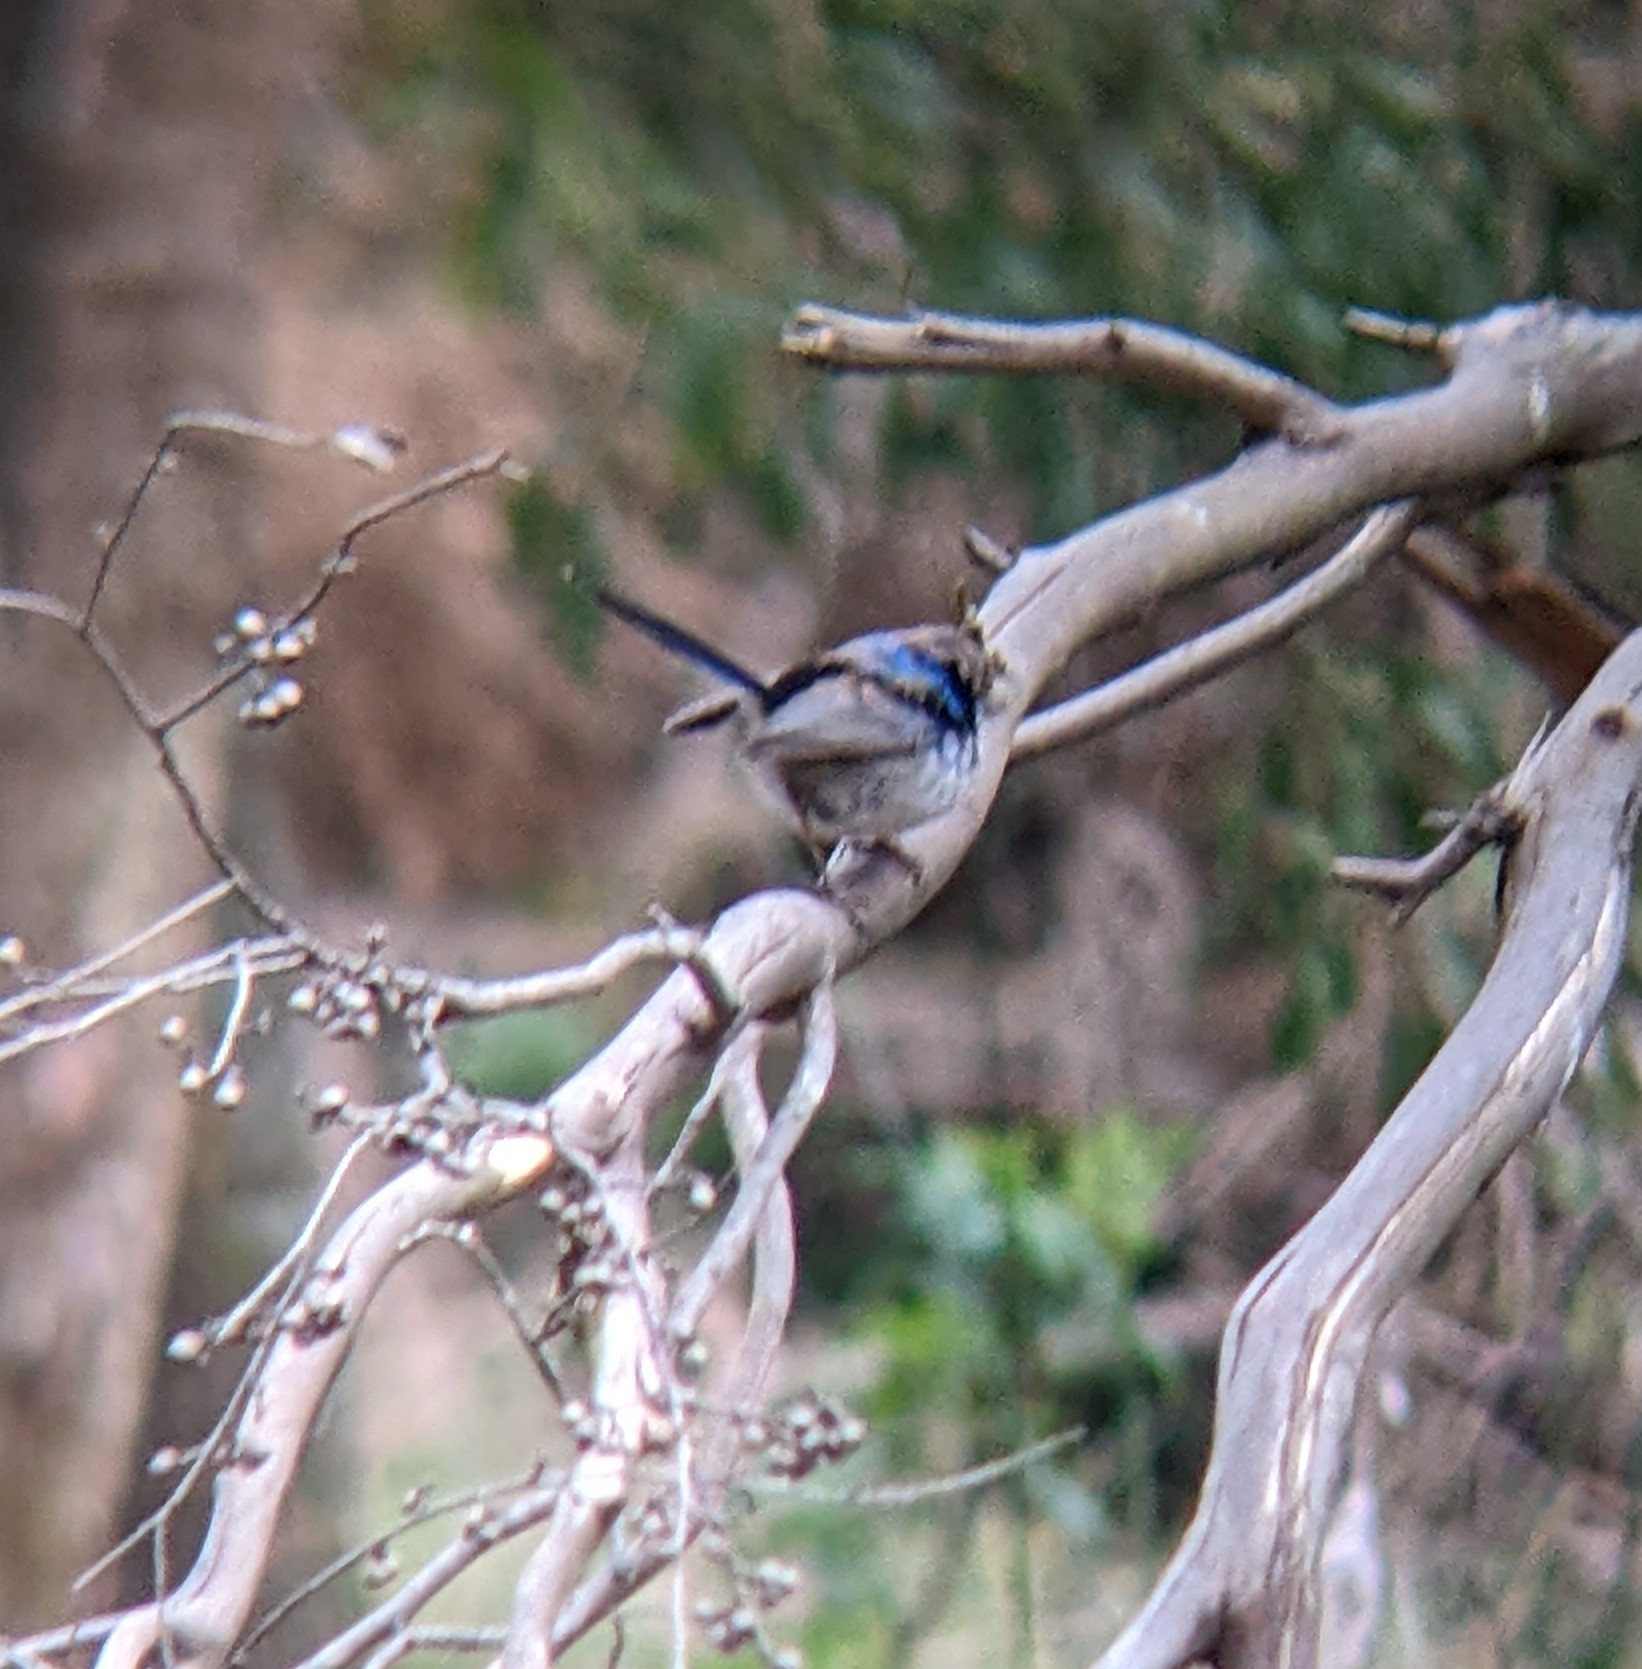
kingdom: Animalia
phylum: Chordata
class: Aves
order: Passeriformes
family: Maluridae
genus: Malurus
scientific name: Malurus cyaneus
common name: Superb fairywren
